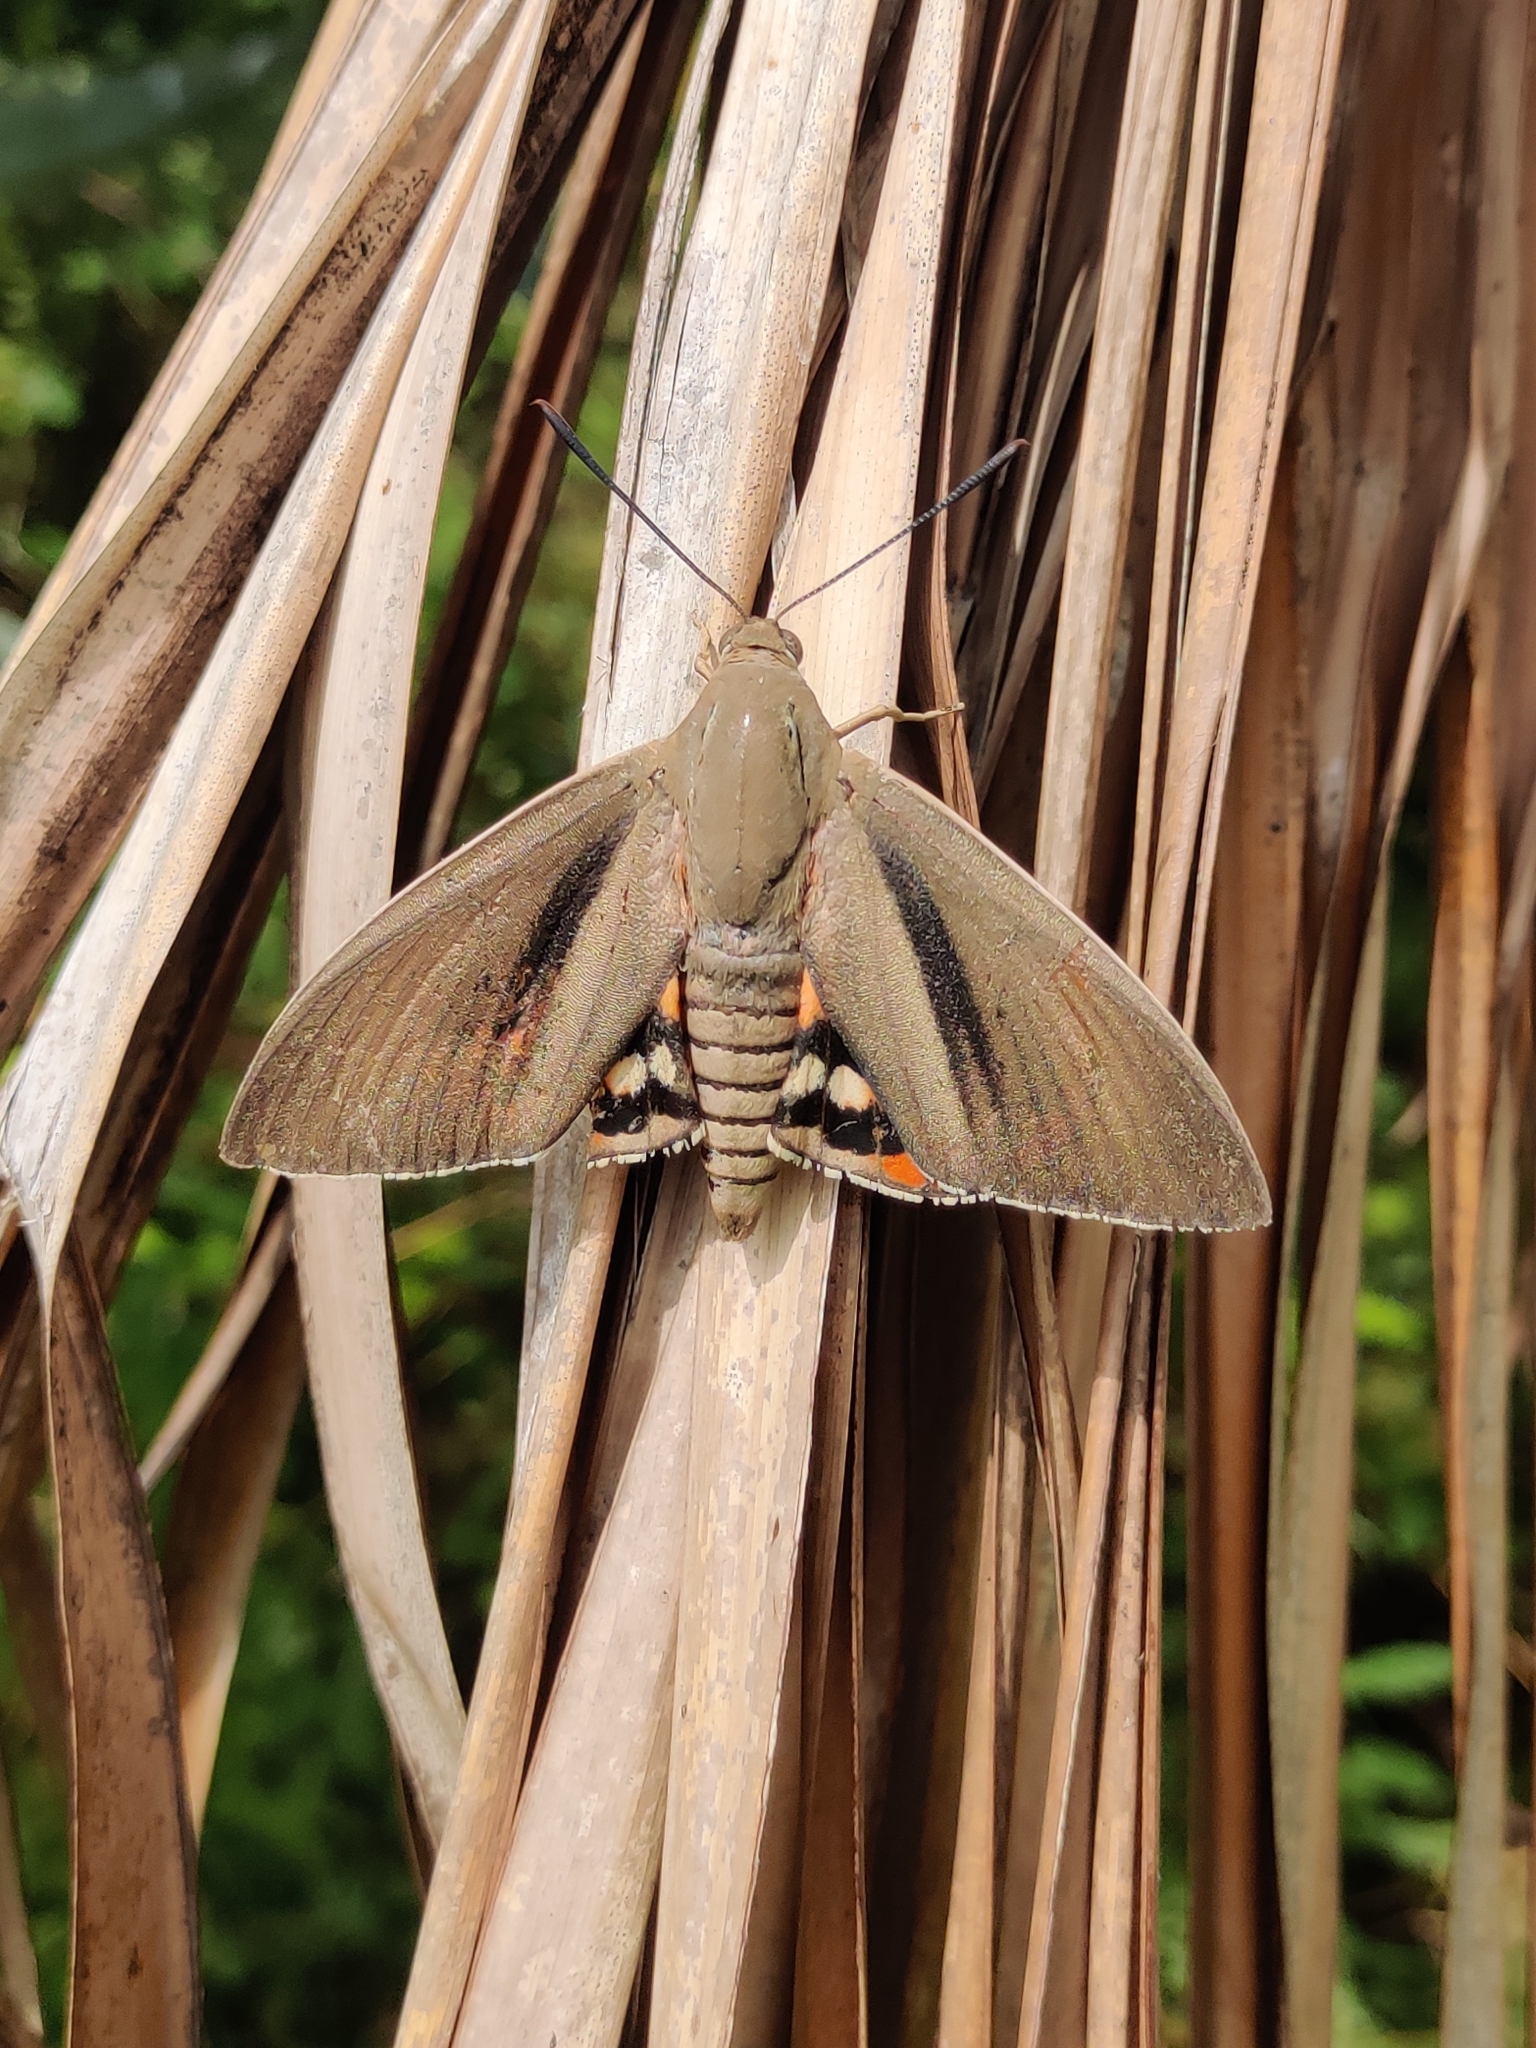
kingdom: Animalia
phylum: Arthropoda
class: Insecta
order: Lepidoptera
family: Castniidae
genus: Paysandisia
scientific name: Paysandisia archon
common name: Palm moth
